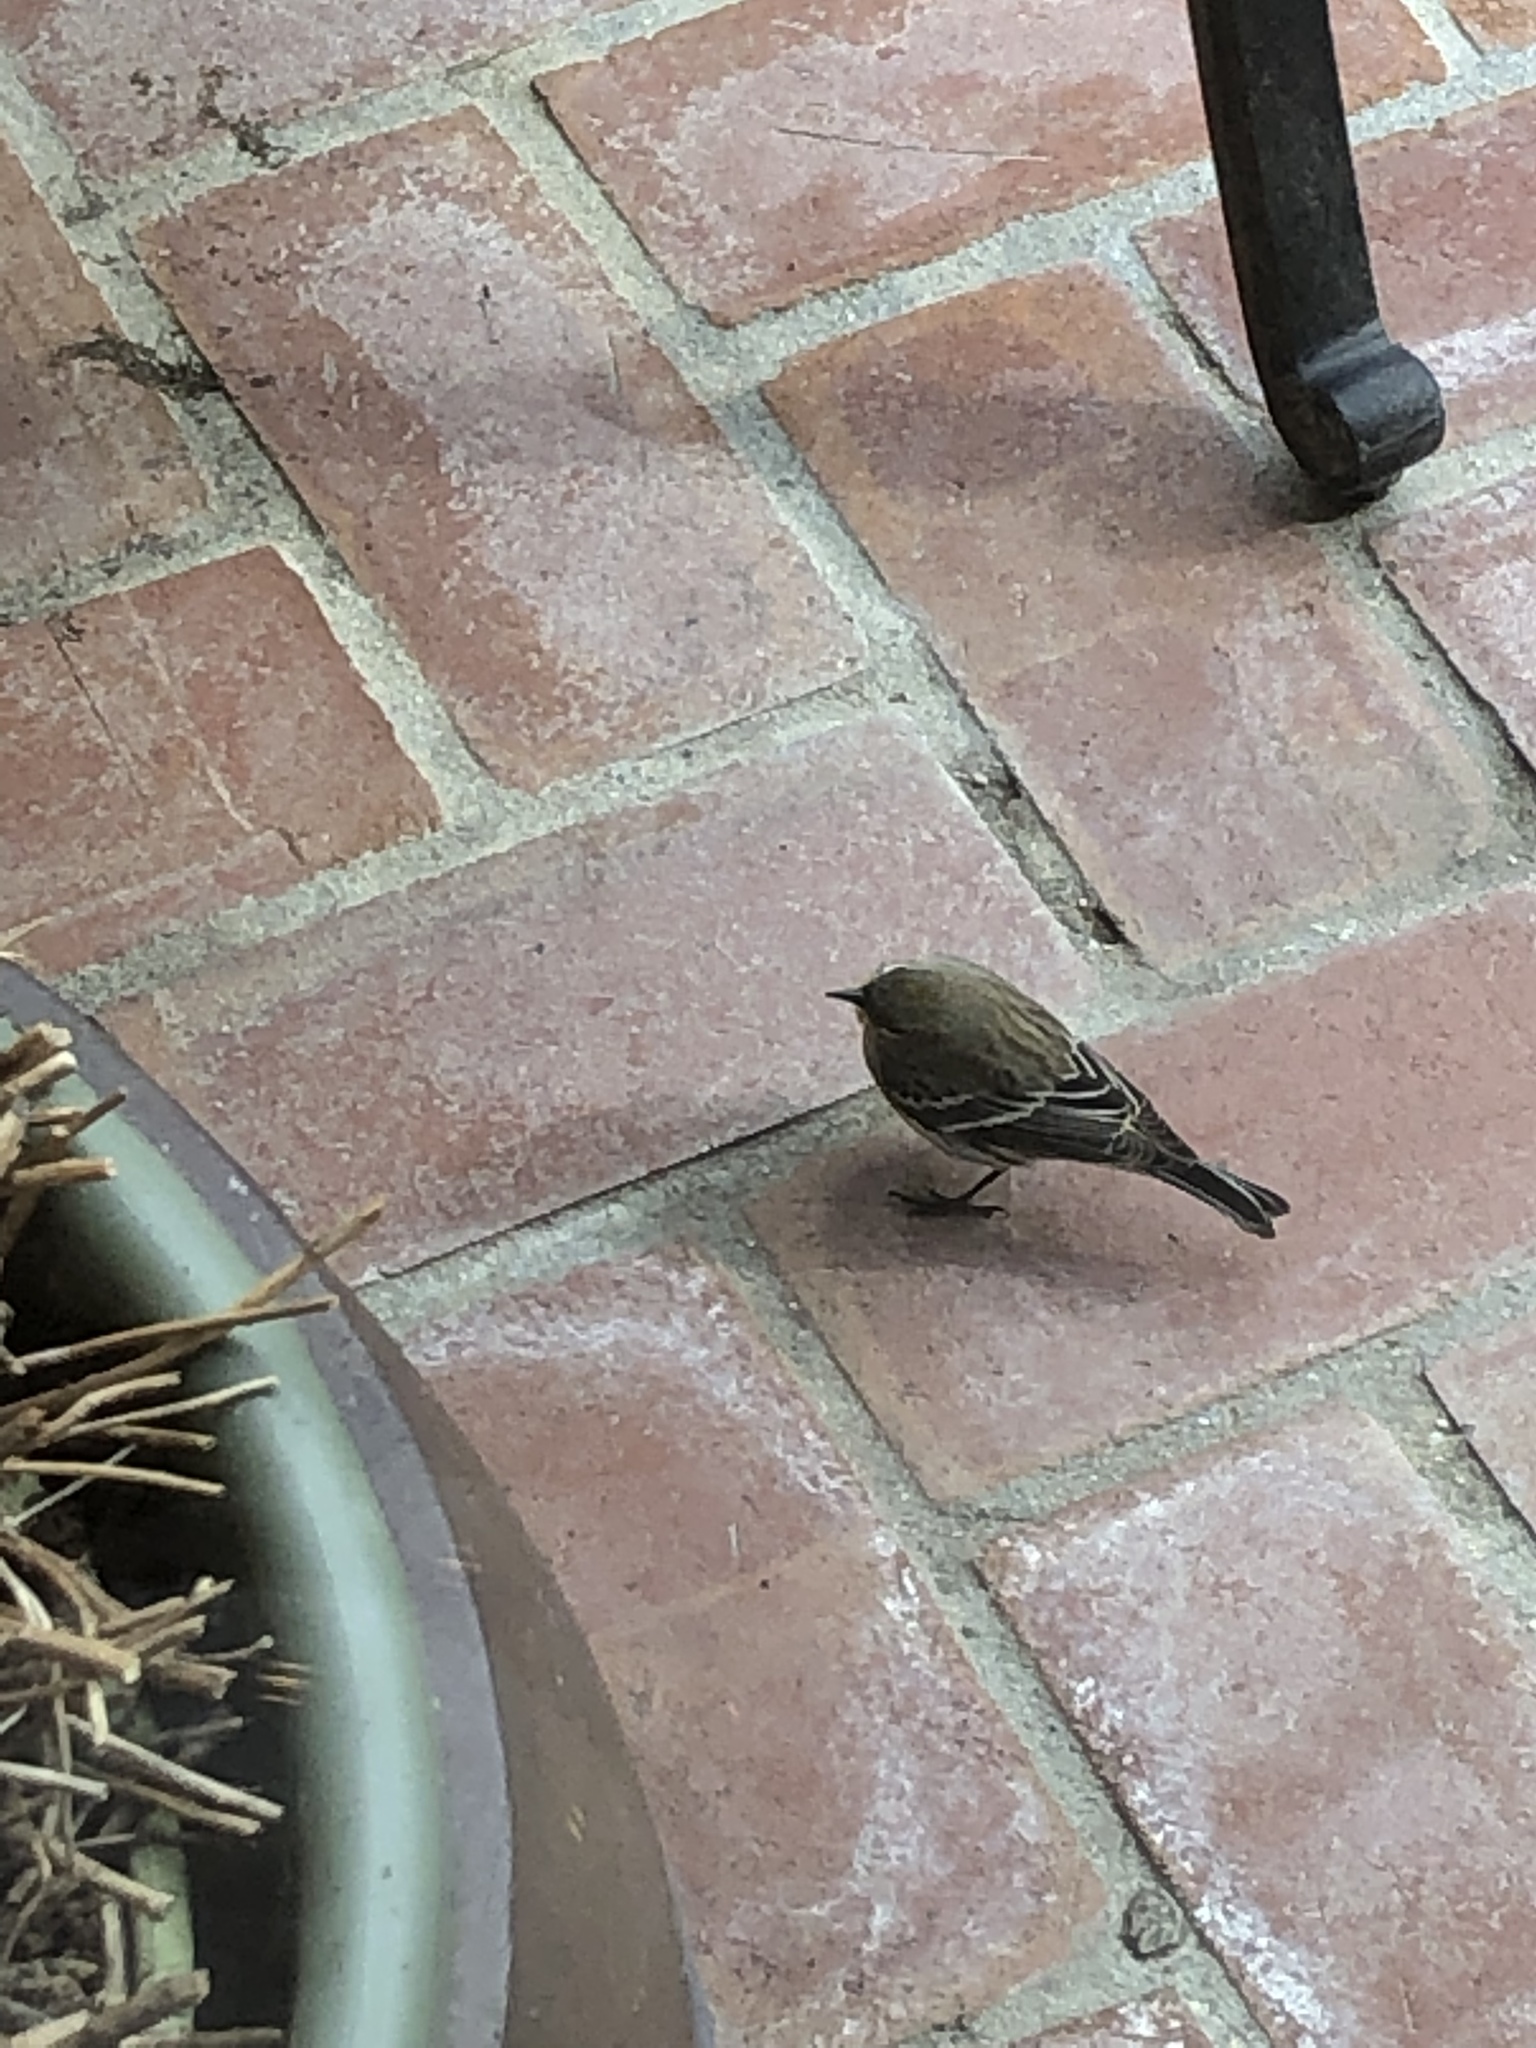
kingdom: Animalia
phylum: Chordata
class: Aves
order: Passeriformes
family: Parulidae
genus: Setophaga
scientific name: Setophaga coronata
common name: Myrtle warbler
